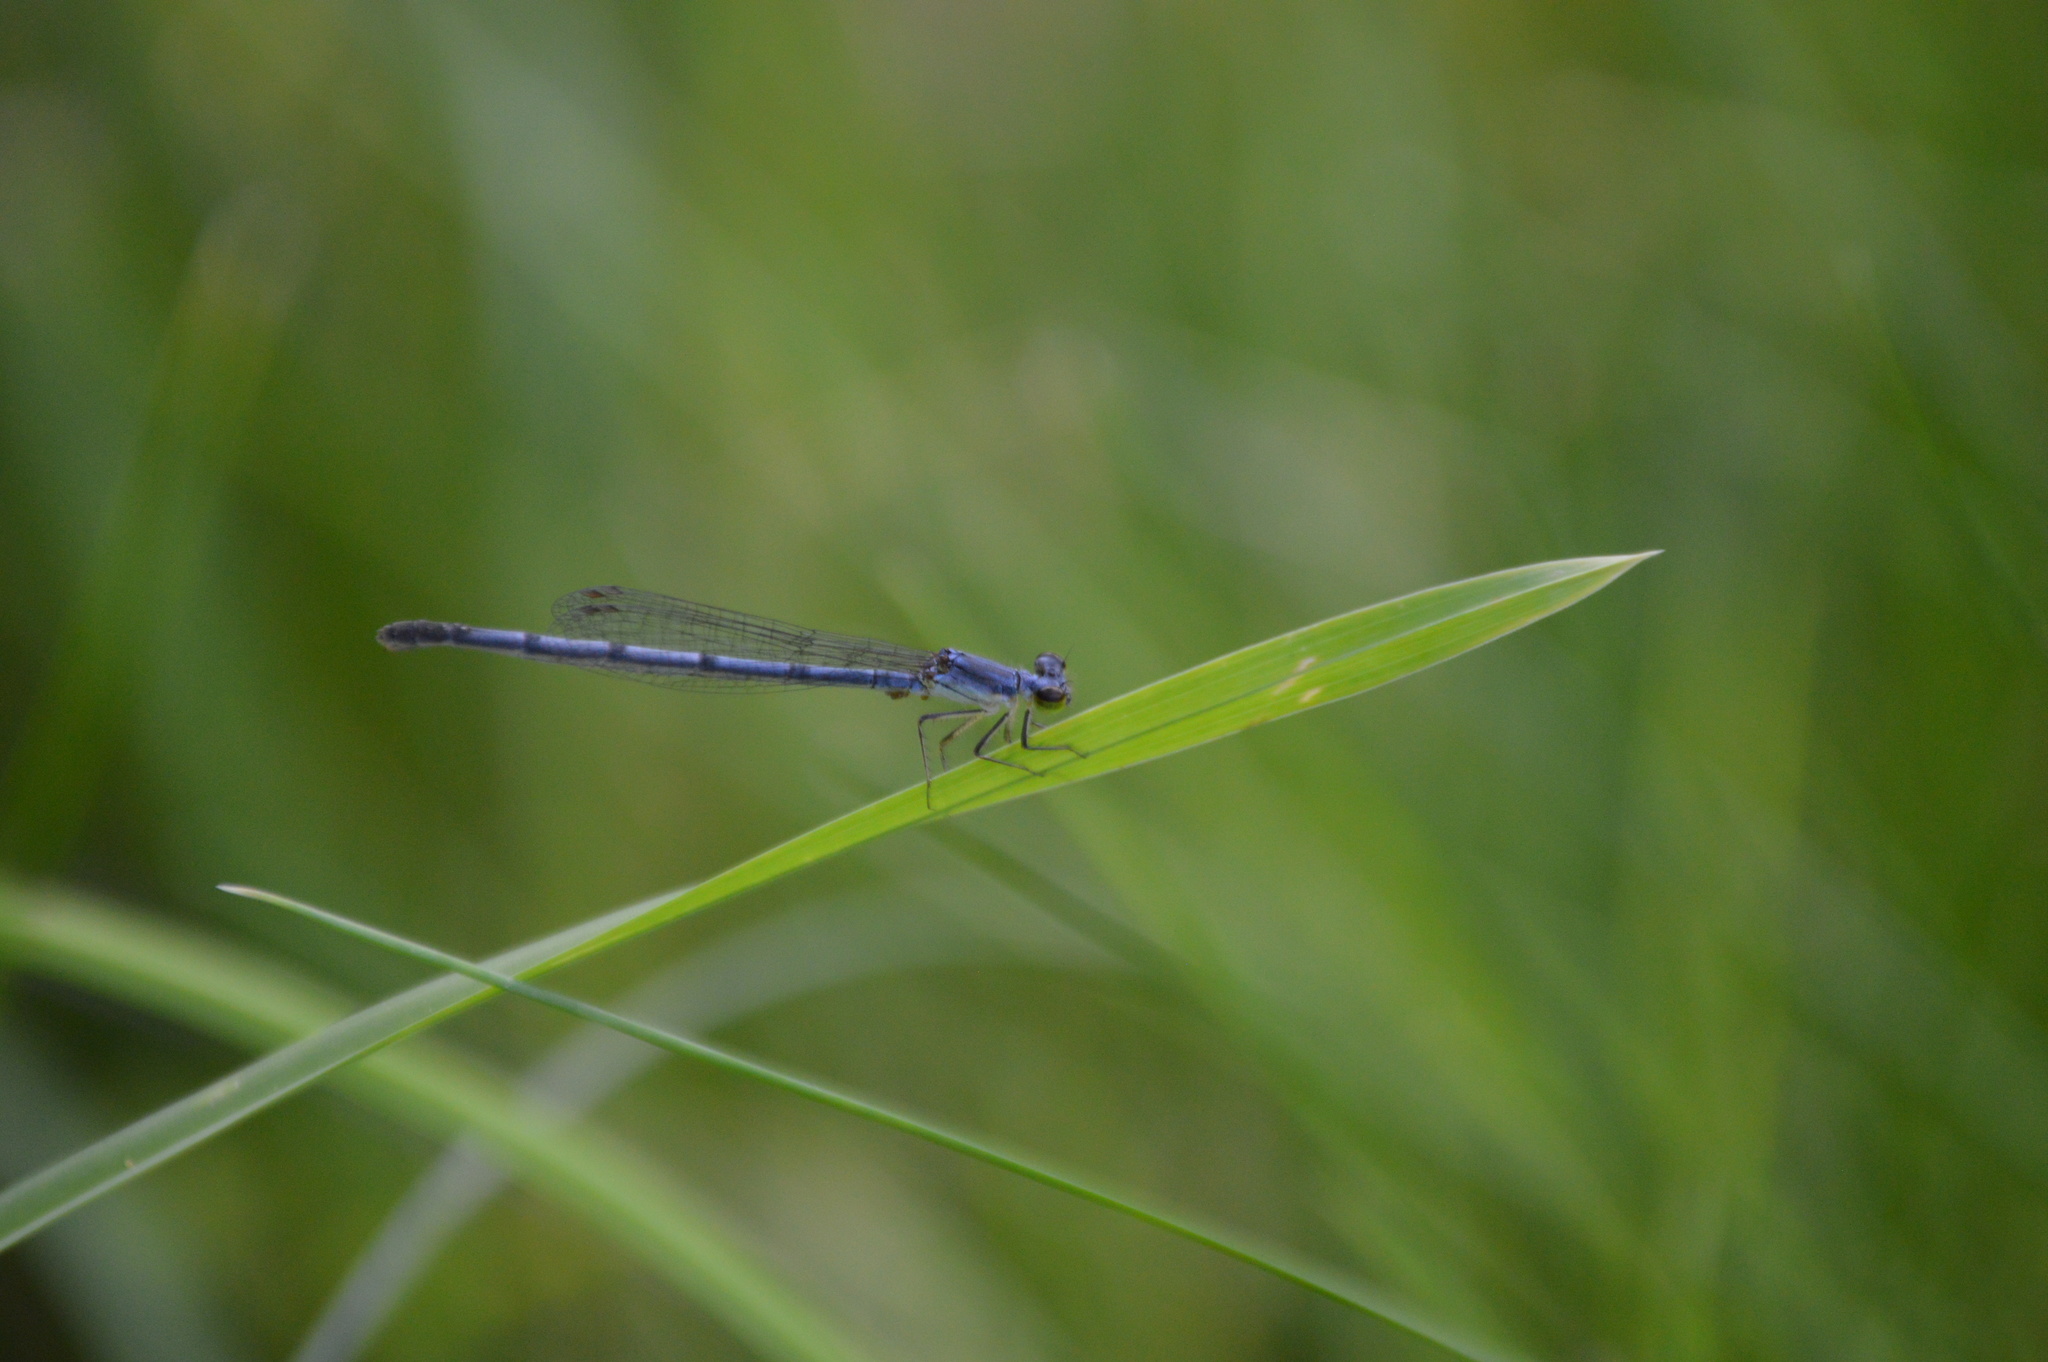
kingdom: Animalia
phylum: Arthropoda
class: Insecta
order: Odonata
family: Coenagrionidae
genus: Ischnura
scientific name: Ischnura posita
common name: Fragile forktail
